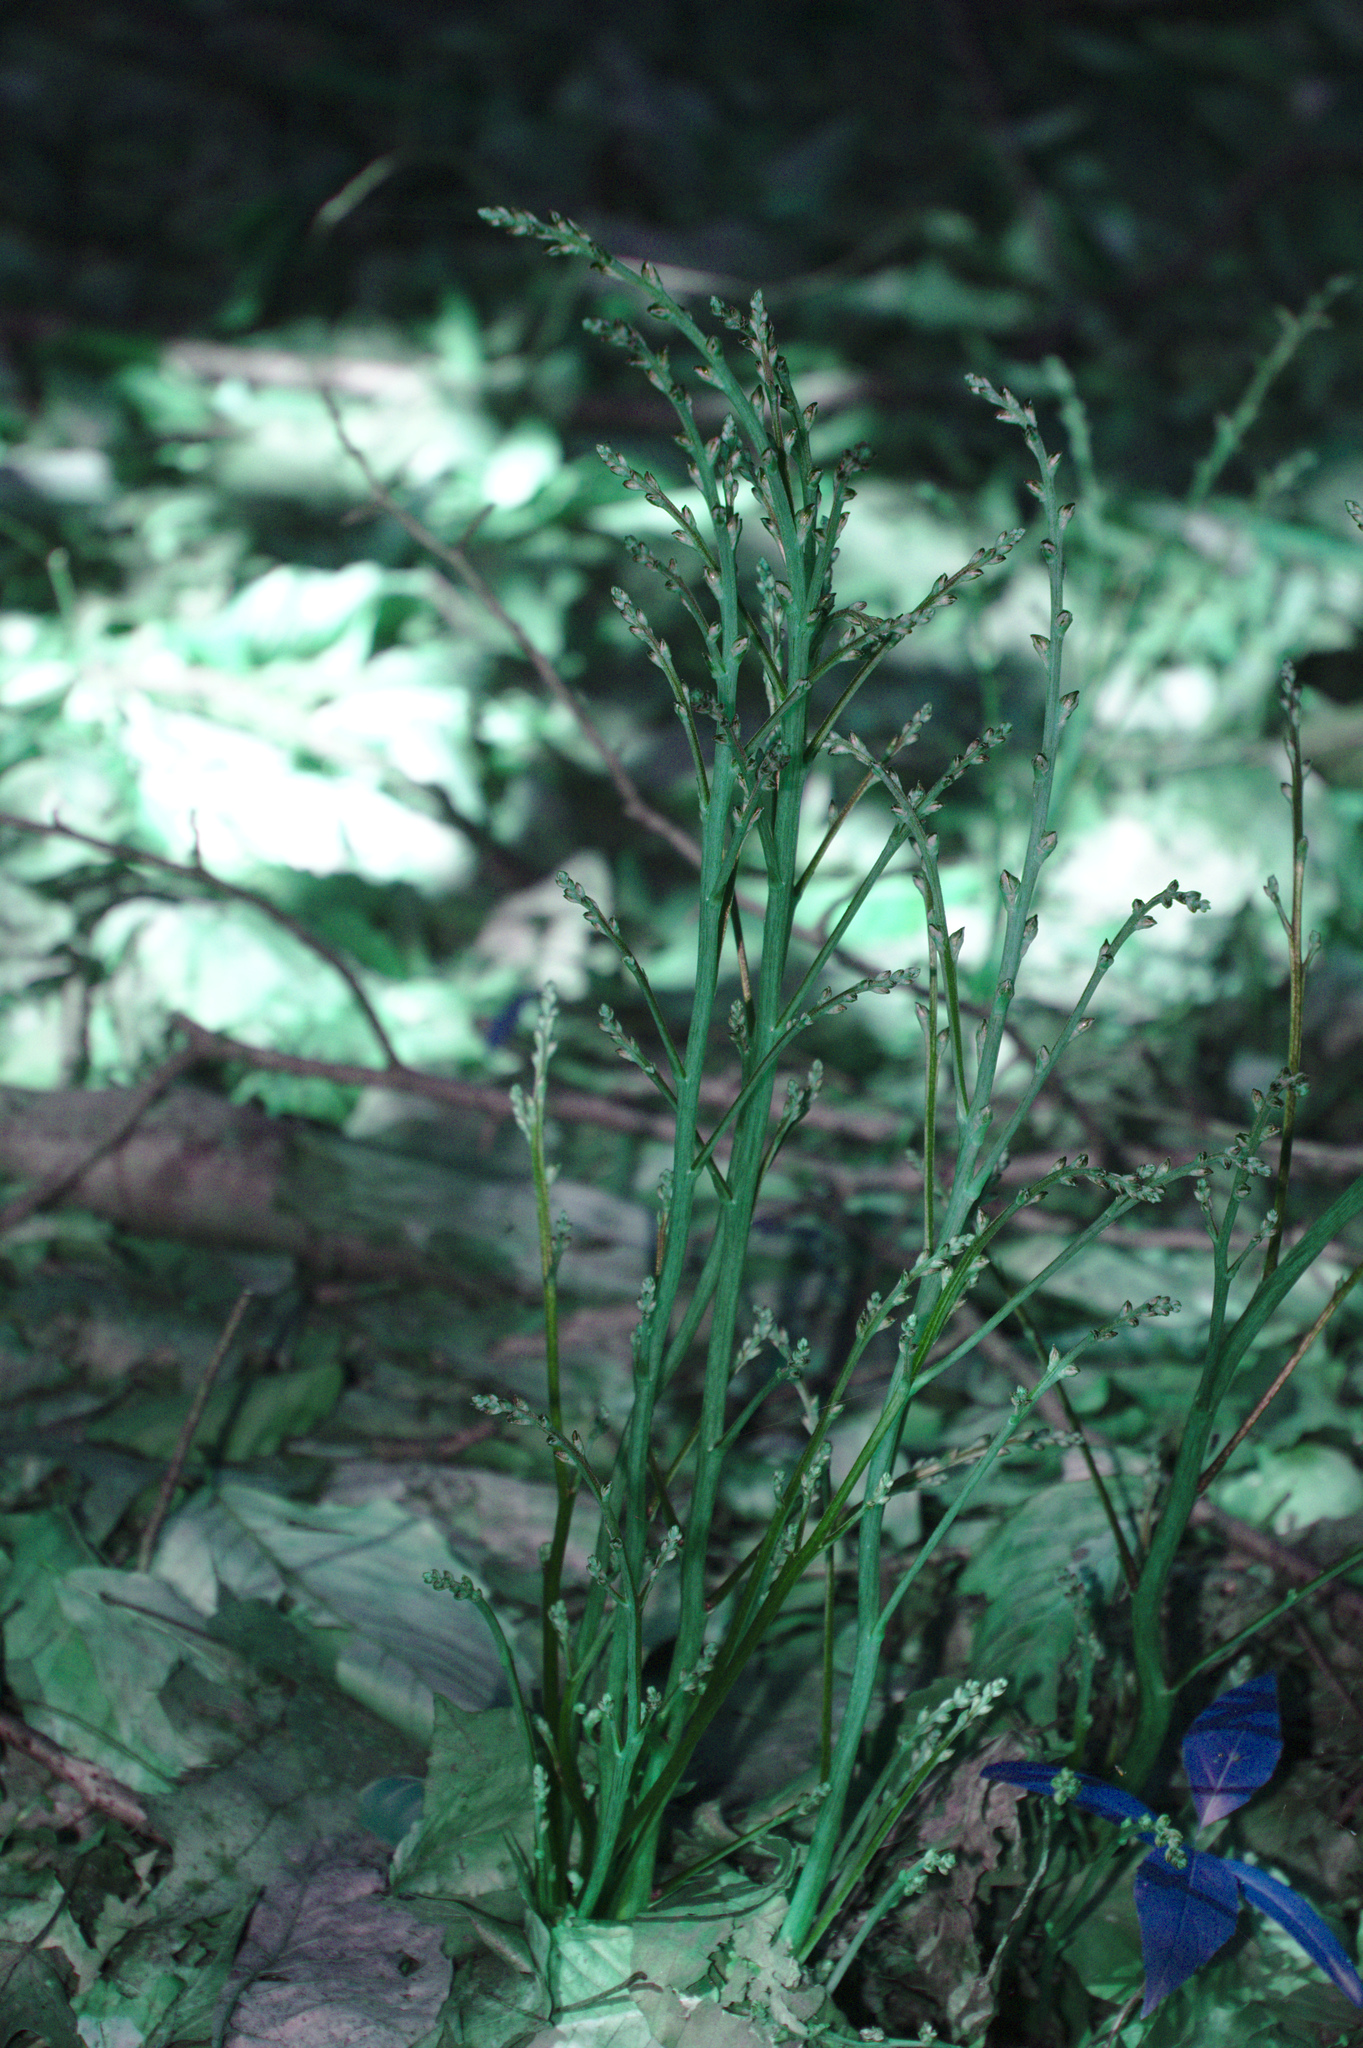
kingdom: Plantae
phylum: Tracheophyta
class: Magnoliopsida
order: Lamiales
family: Orobanchaceae
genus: Epifagus
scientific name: Epifagus virginiana
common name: Beechdrops
